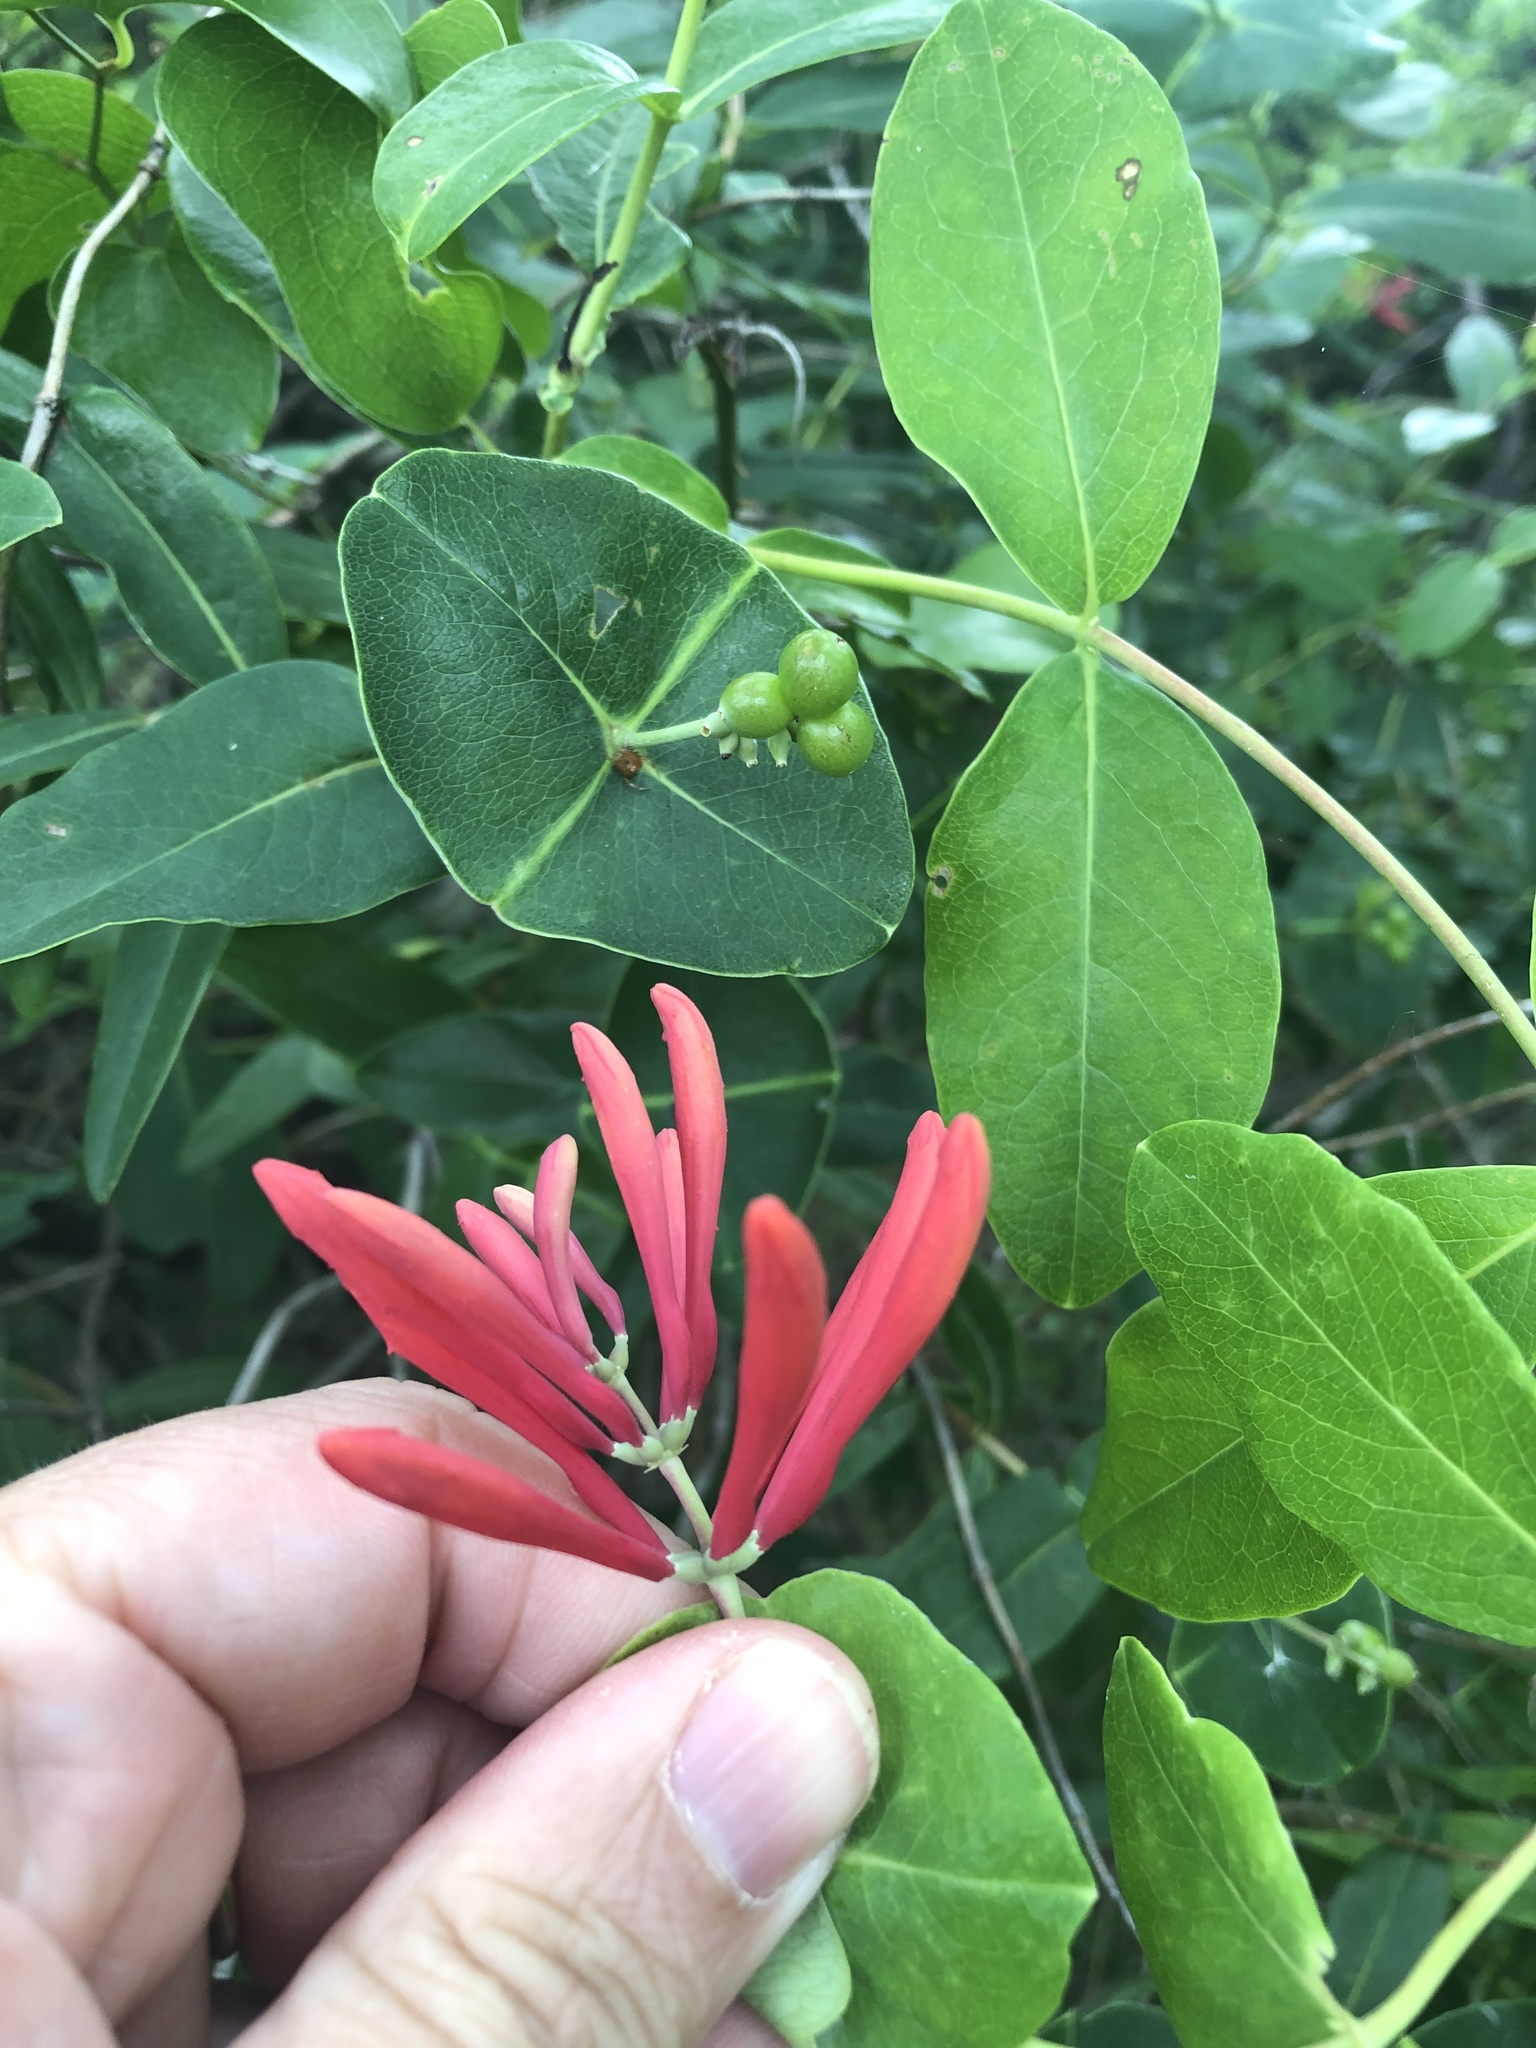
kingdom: Plantae
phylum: Tracheophyta
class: Magnoliopsida
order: Dipsacales
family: Caprifoliaceae
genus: Lonicera
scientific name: Lonicera sempervirens
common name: Coral honeysuckle
